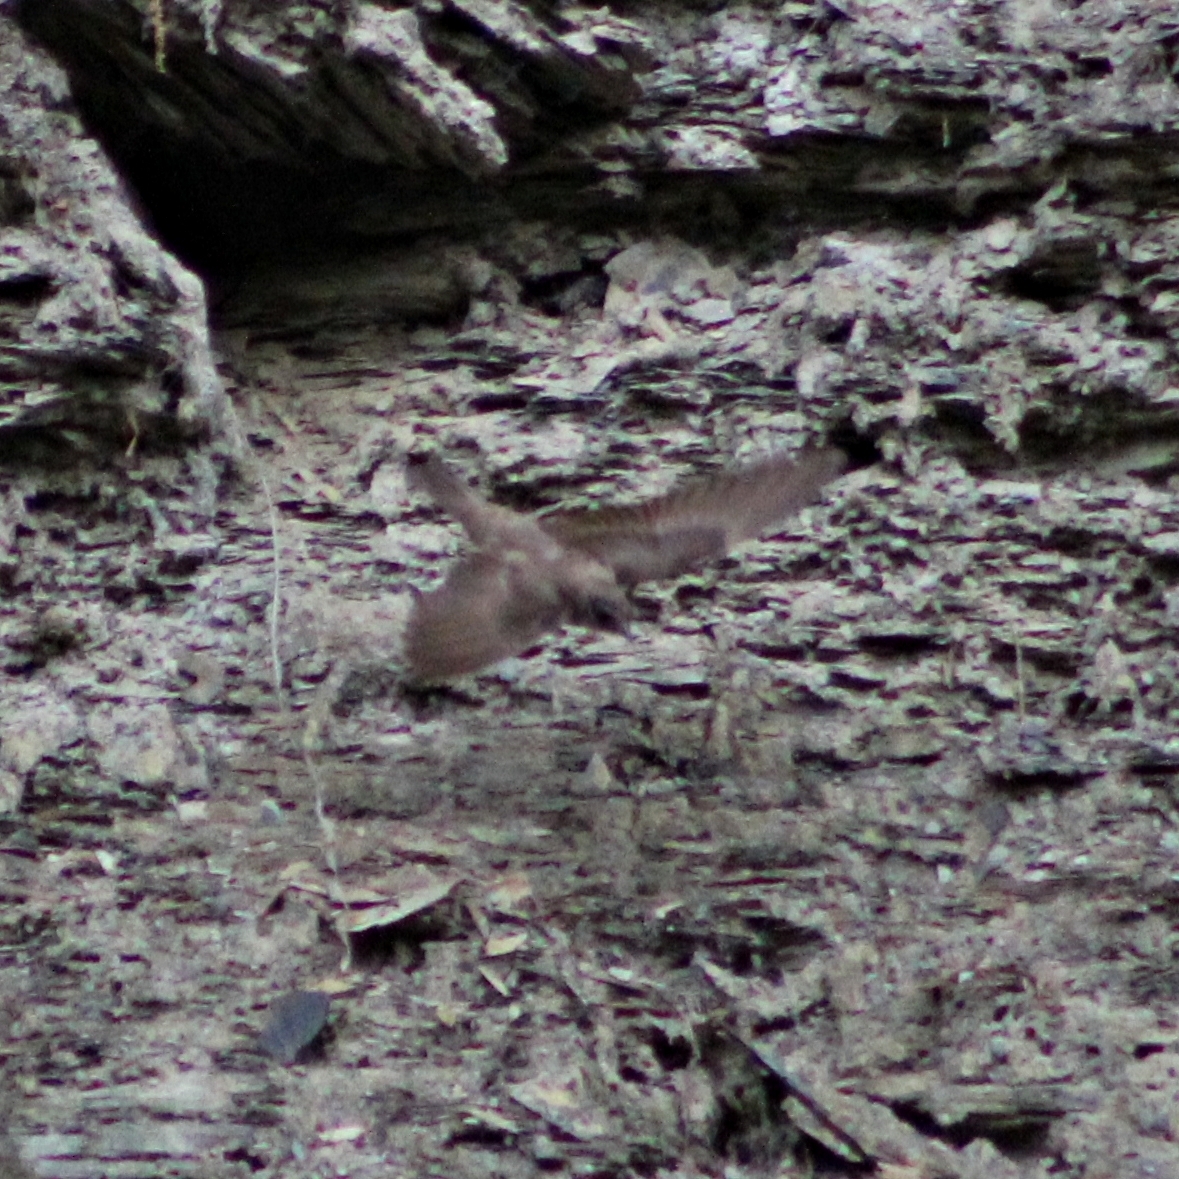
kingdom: Animalia
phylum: Chordata
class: Aves
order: Passeriformes
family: Hirundinidae
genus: Stelgidopteryx
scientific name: Stelgidopteryx serripennis
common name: Northern rough-winged swallow
